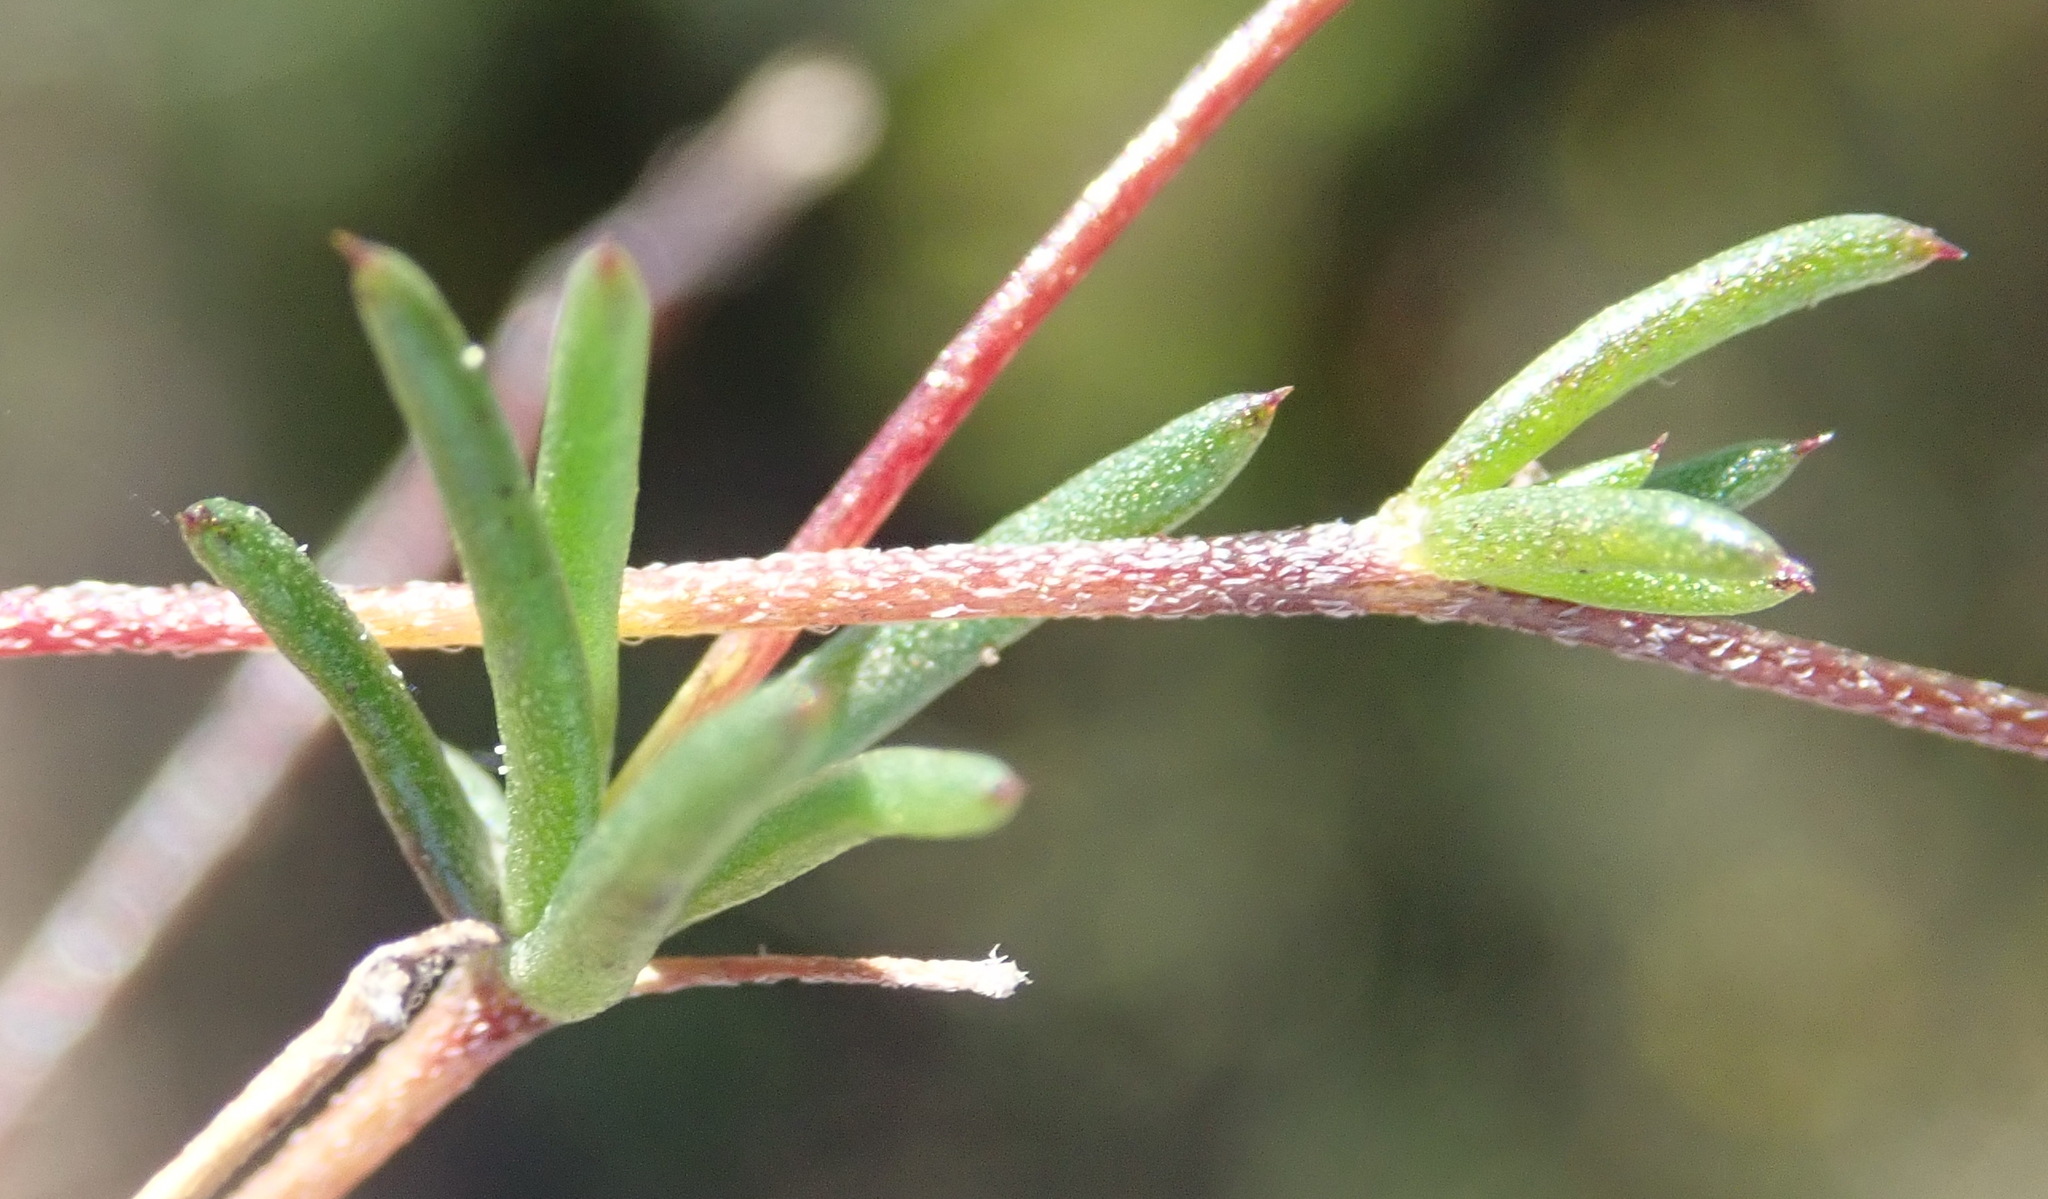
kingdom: Plantae
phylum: Tracheophyta
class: Magnoliopsida
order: Fabales
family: Fabaceae
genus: Aspalathus
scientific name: Aspalathus biflora
